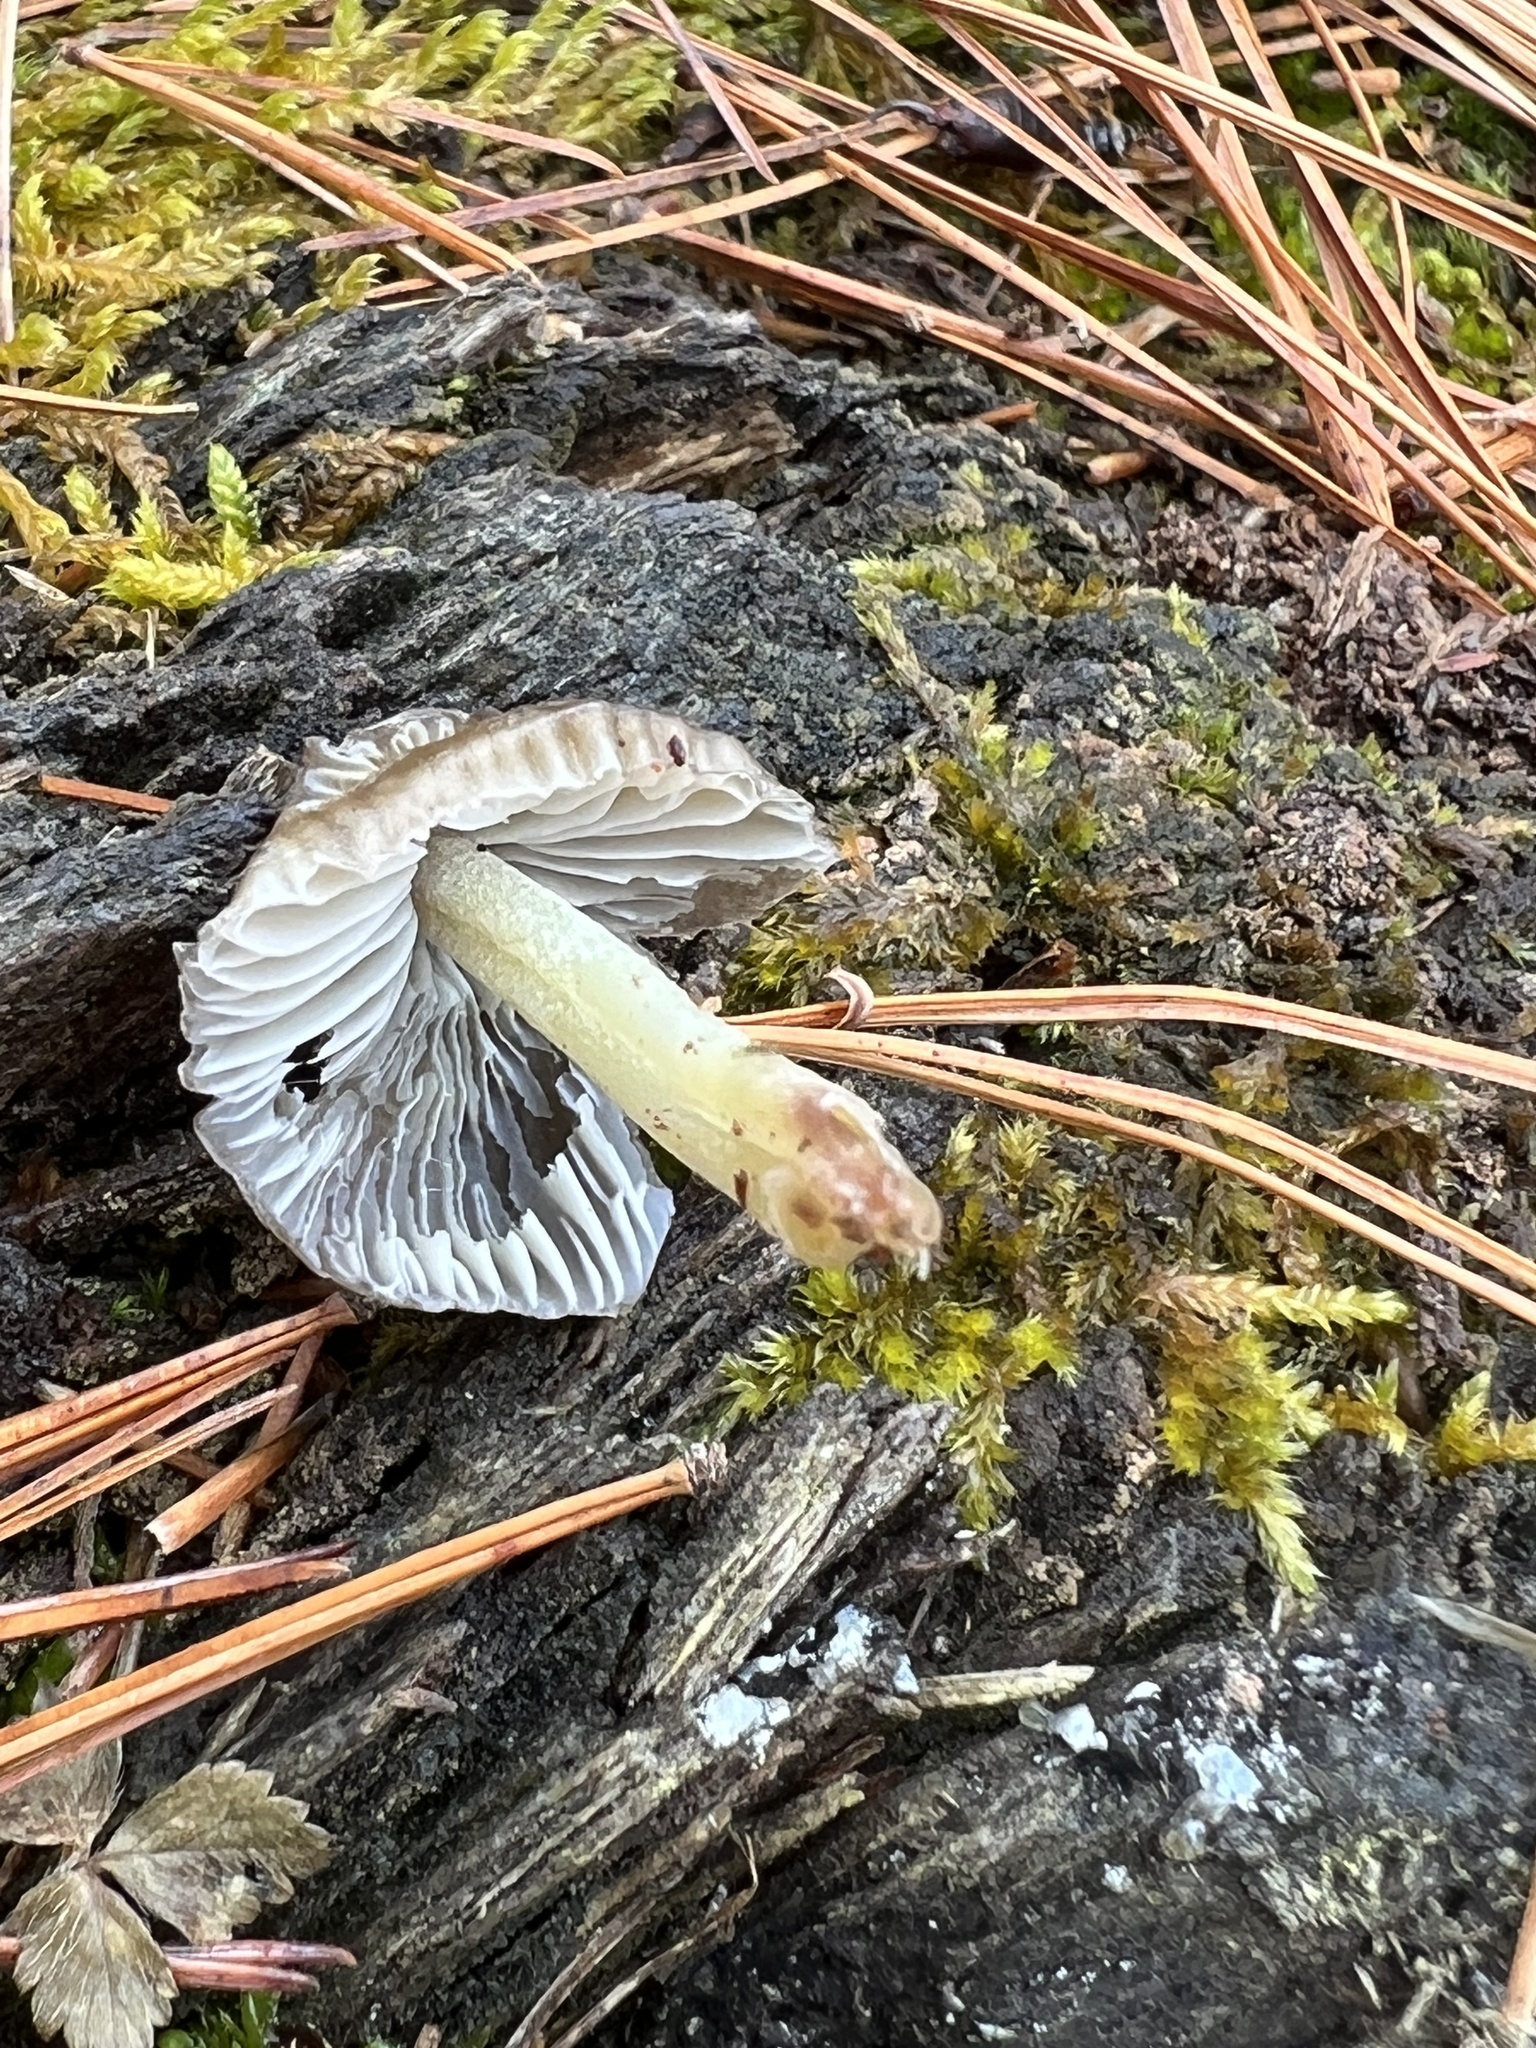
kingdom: Fungi
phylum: Basidiomycota
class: Agaricomycetes
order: Agaricales
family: Mycenaceae
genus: Mycena
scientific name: Mycena epipterygia
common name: Yellowleg bonnet
